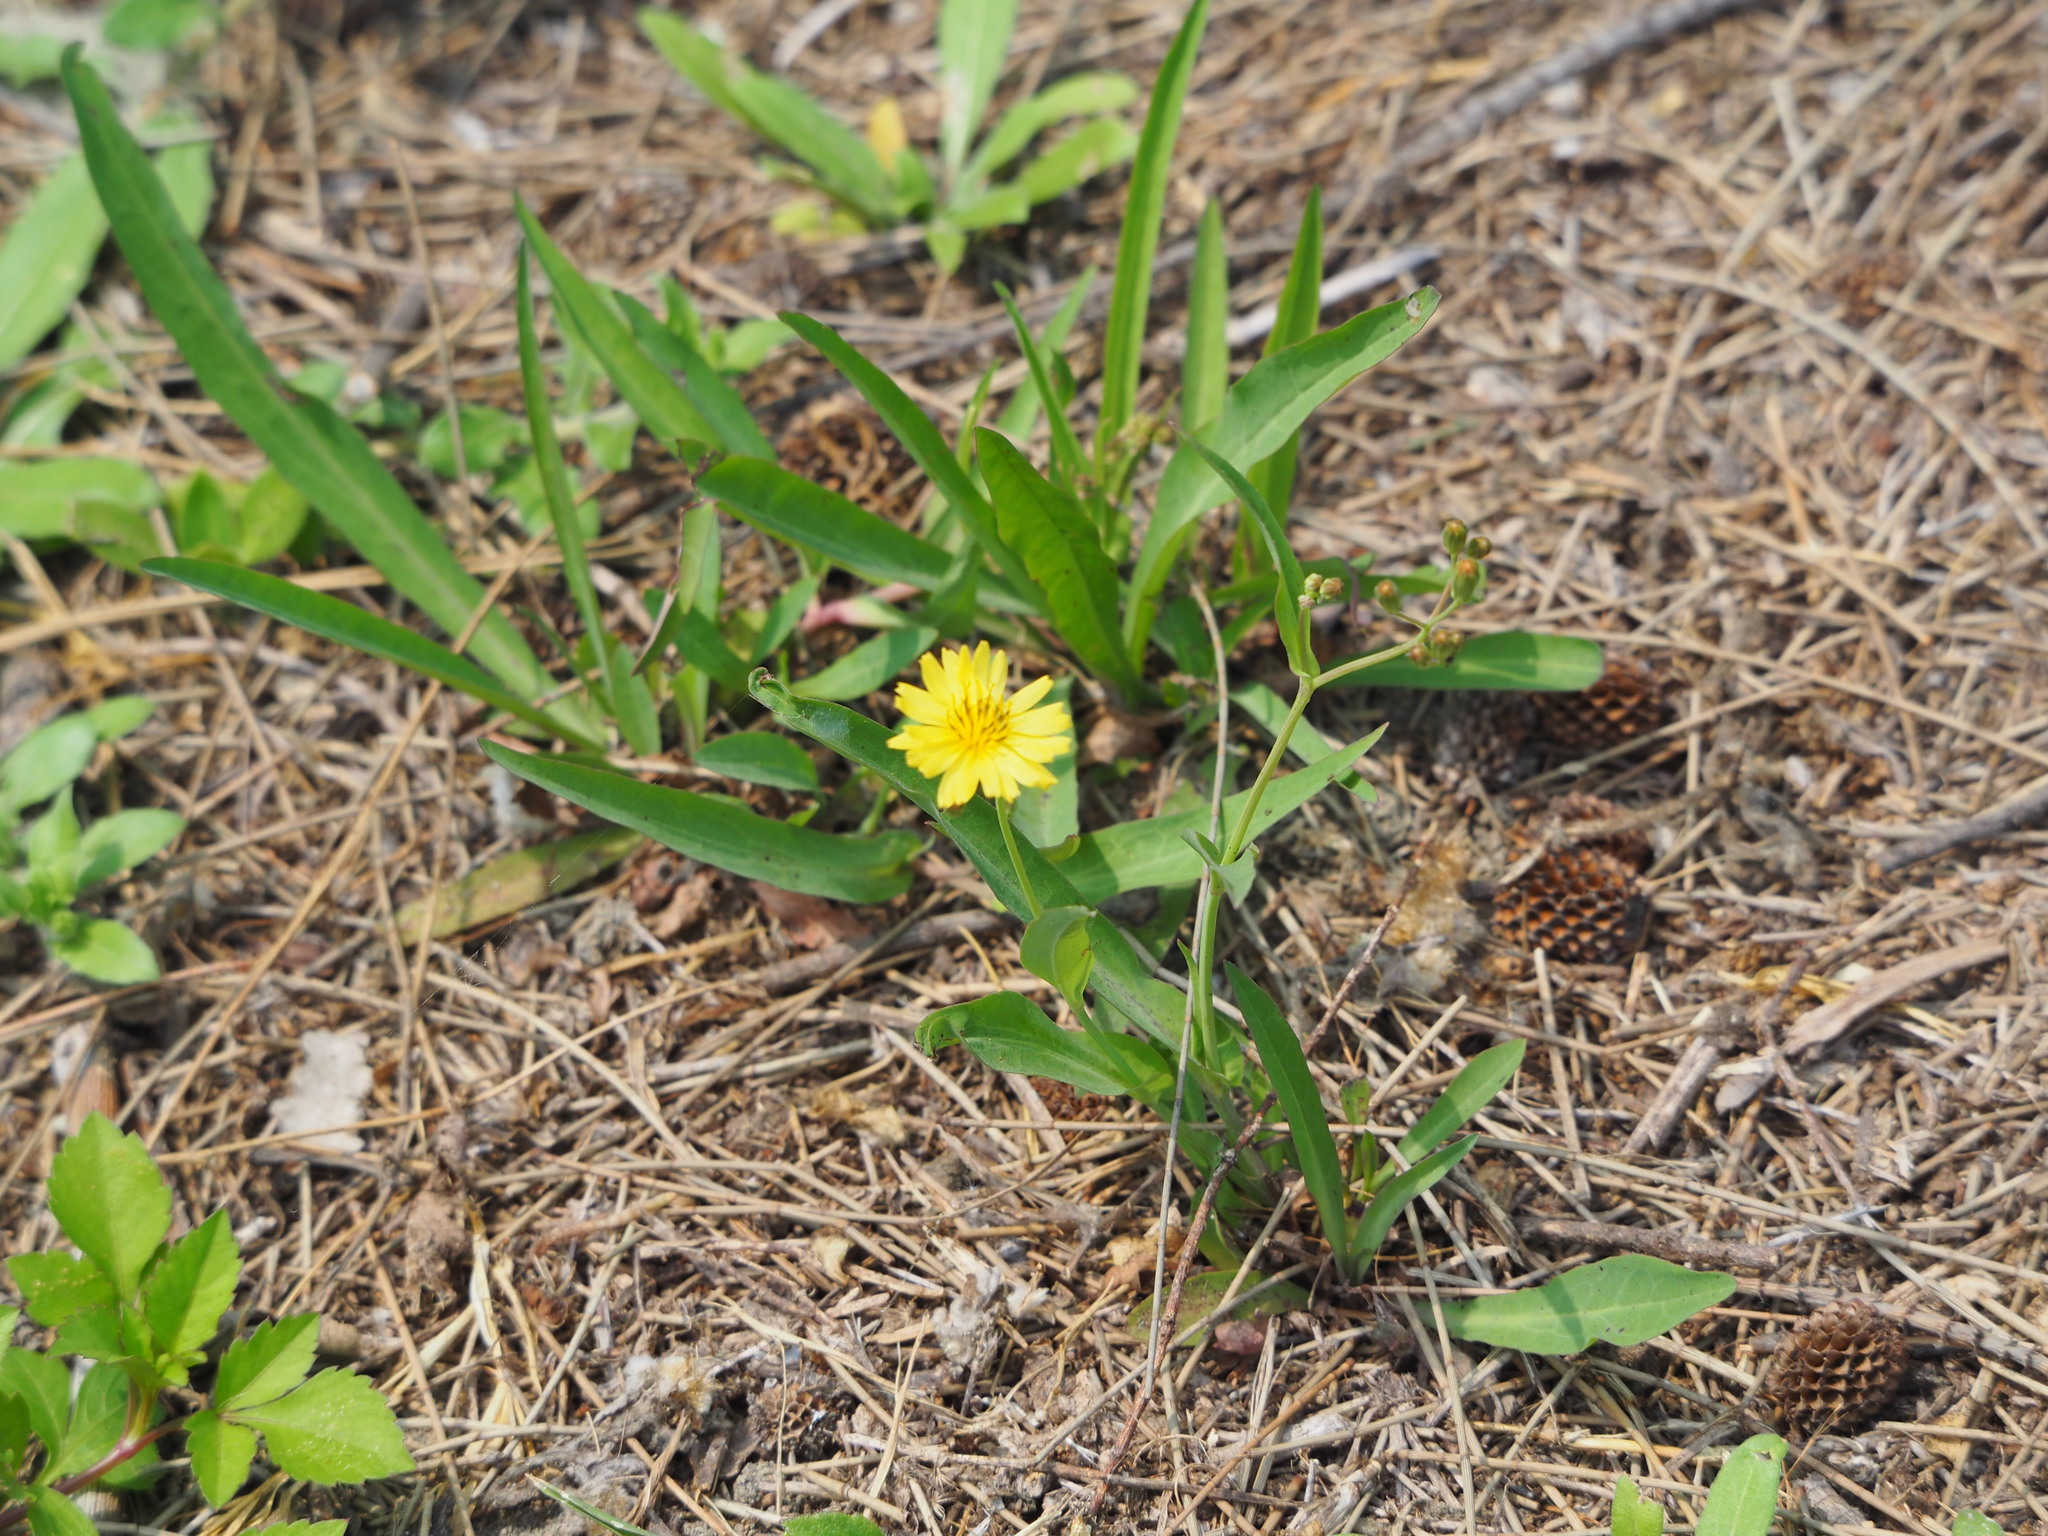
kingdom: Plantae
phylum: Tracheophyta
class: Magnoliopsida
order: Asterales
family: Asteraceae
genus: Ixeris
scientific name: Ixeris chinensis
